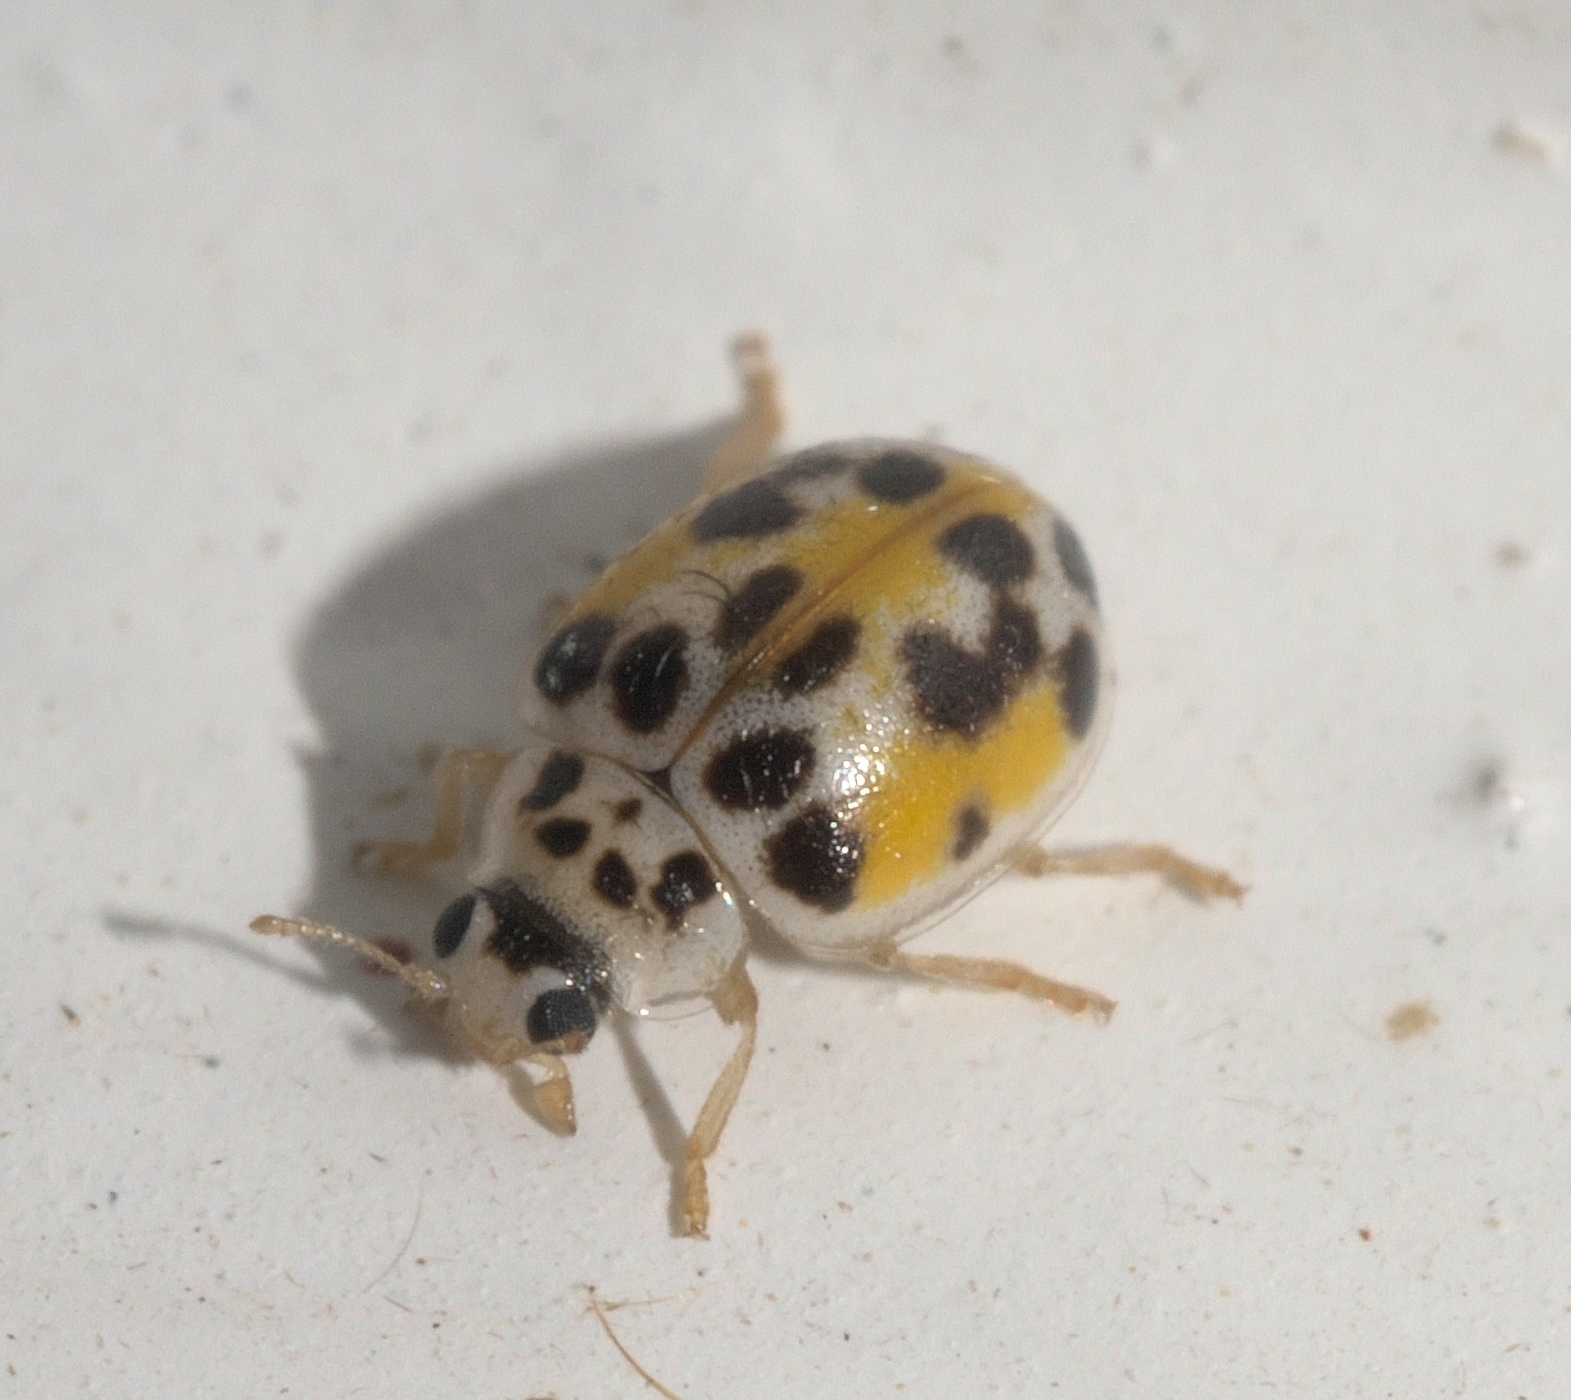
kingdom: Animalia
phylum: Arthropoda
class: Insecta
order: Coleoptera
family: Coccinellidae
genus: Psyllobora
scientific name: Psyllobora vigintimaculata
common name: Ladybird beetle
